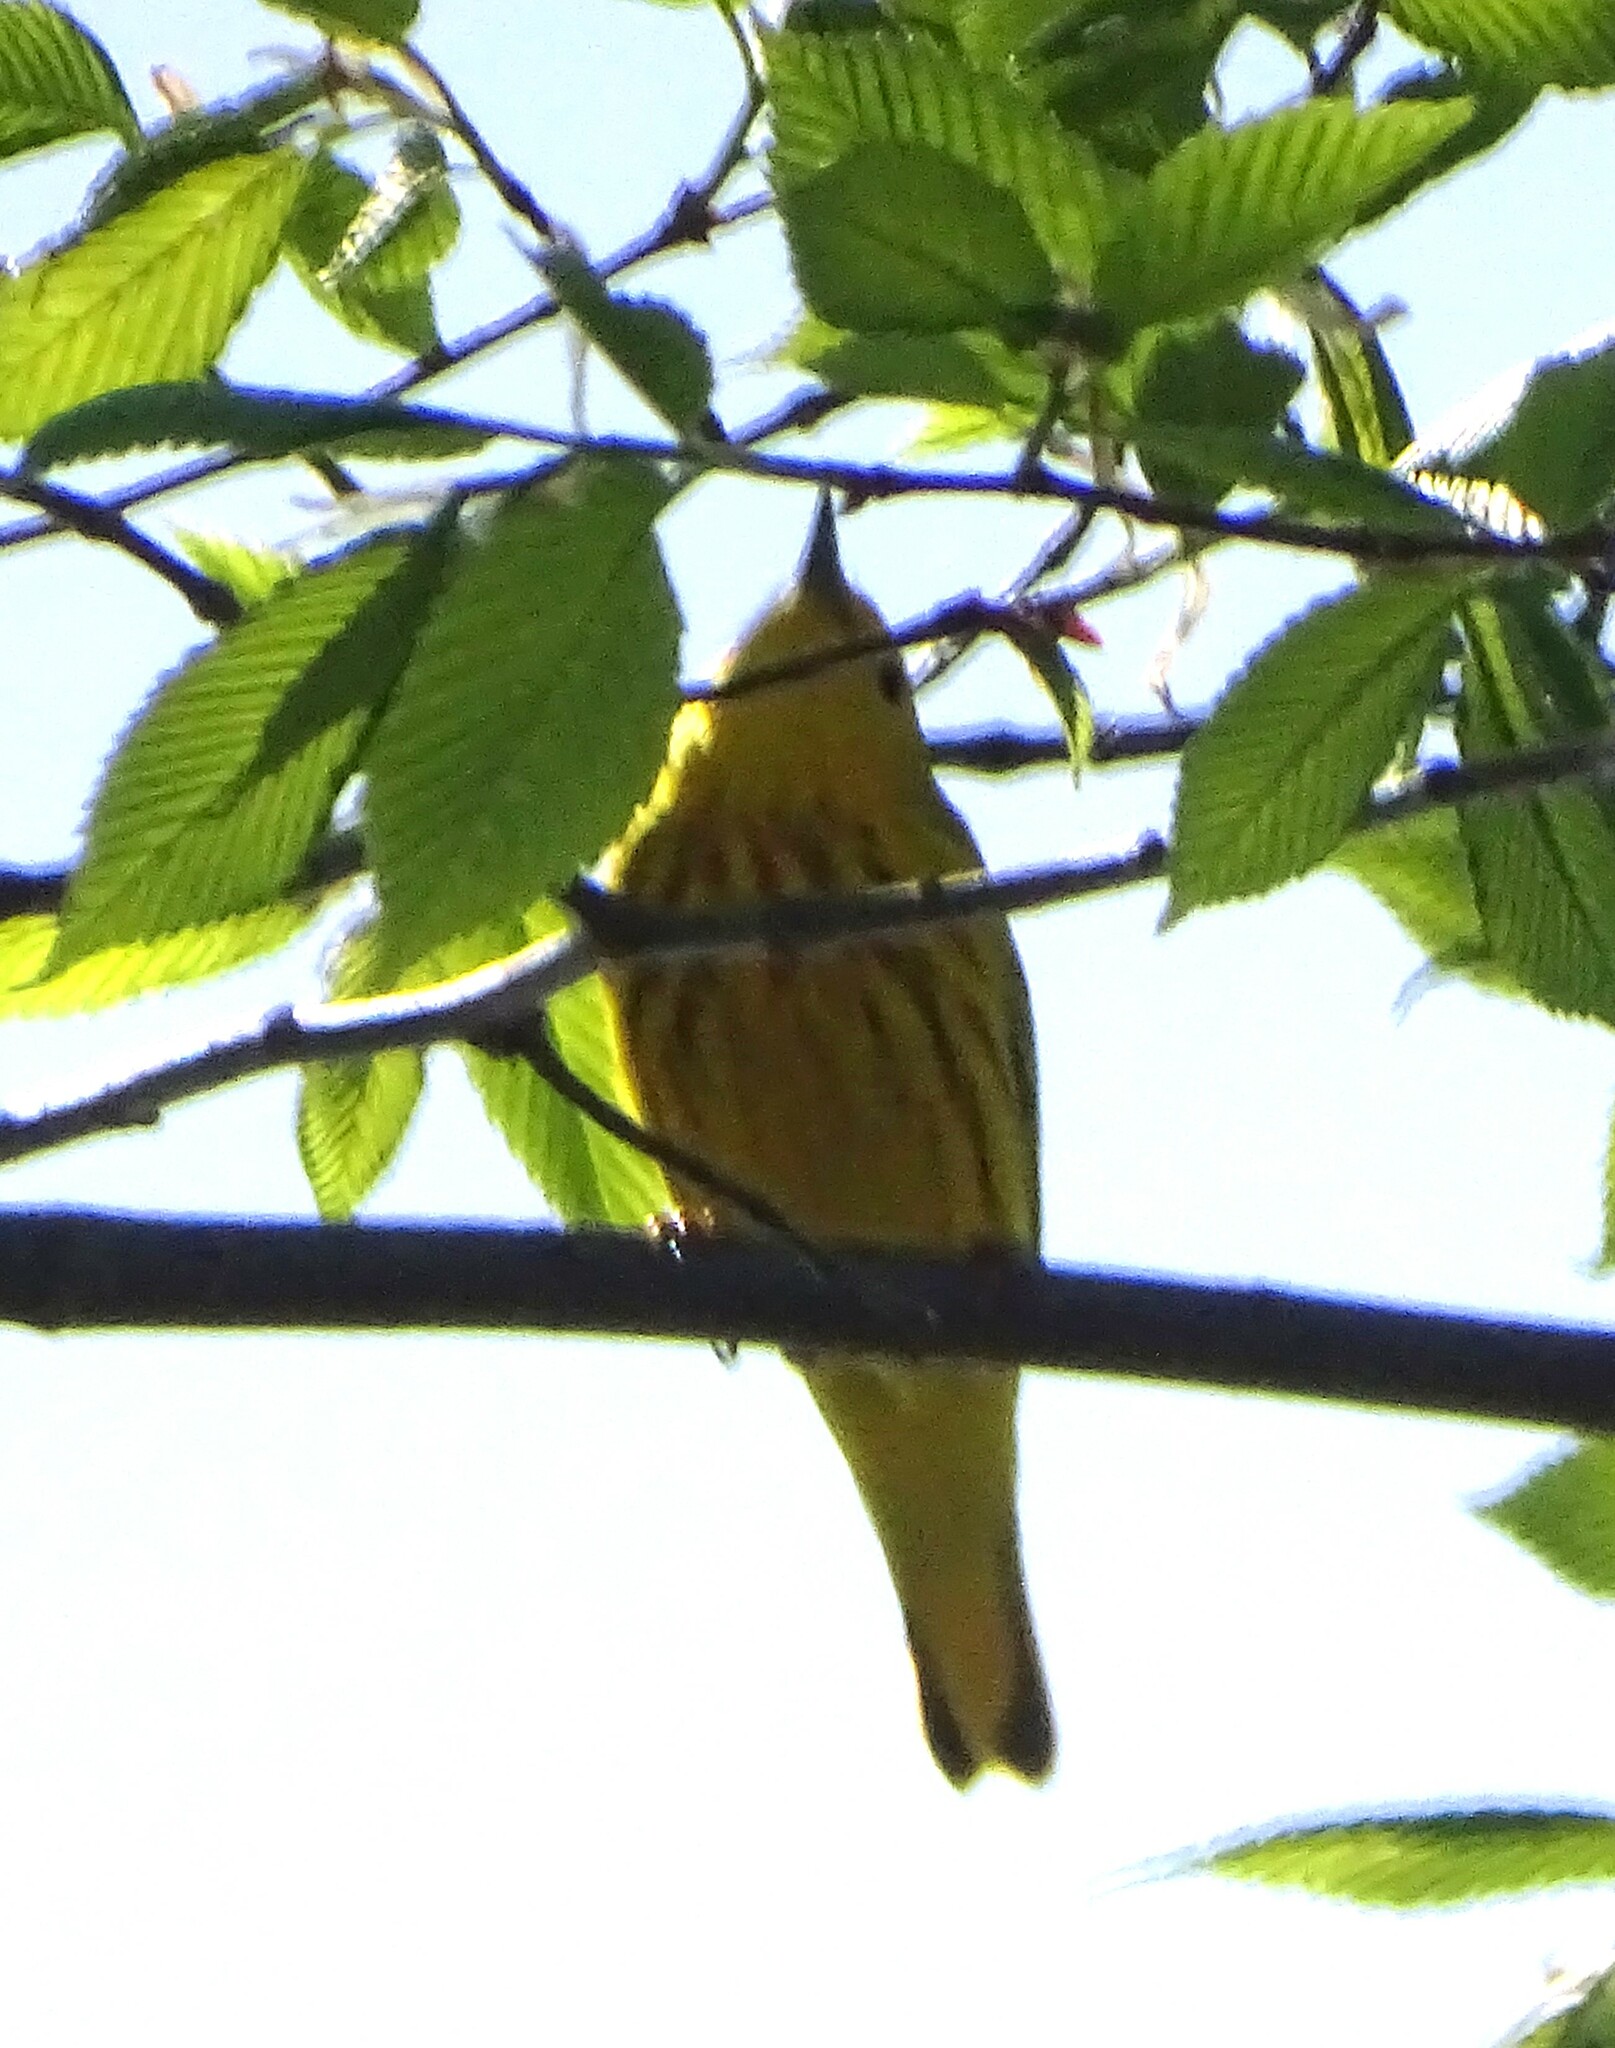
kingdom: Animalia
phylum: Chordata
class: Aves
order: Passeriformes
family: Parulidae
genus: Setophaga
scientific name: Setophaga petechia
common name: Yellow warbler
